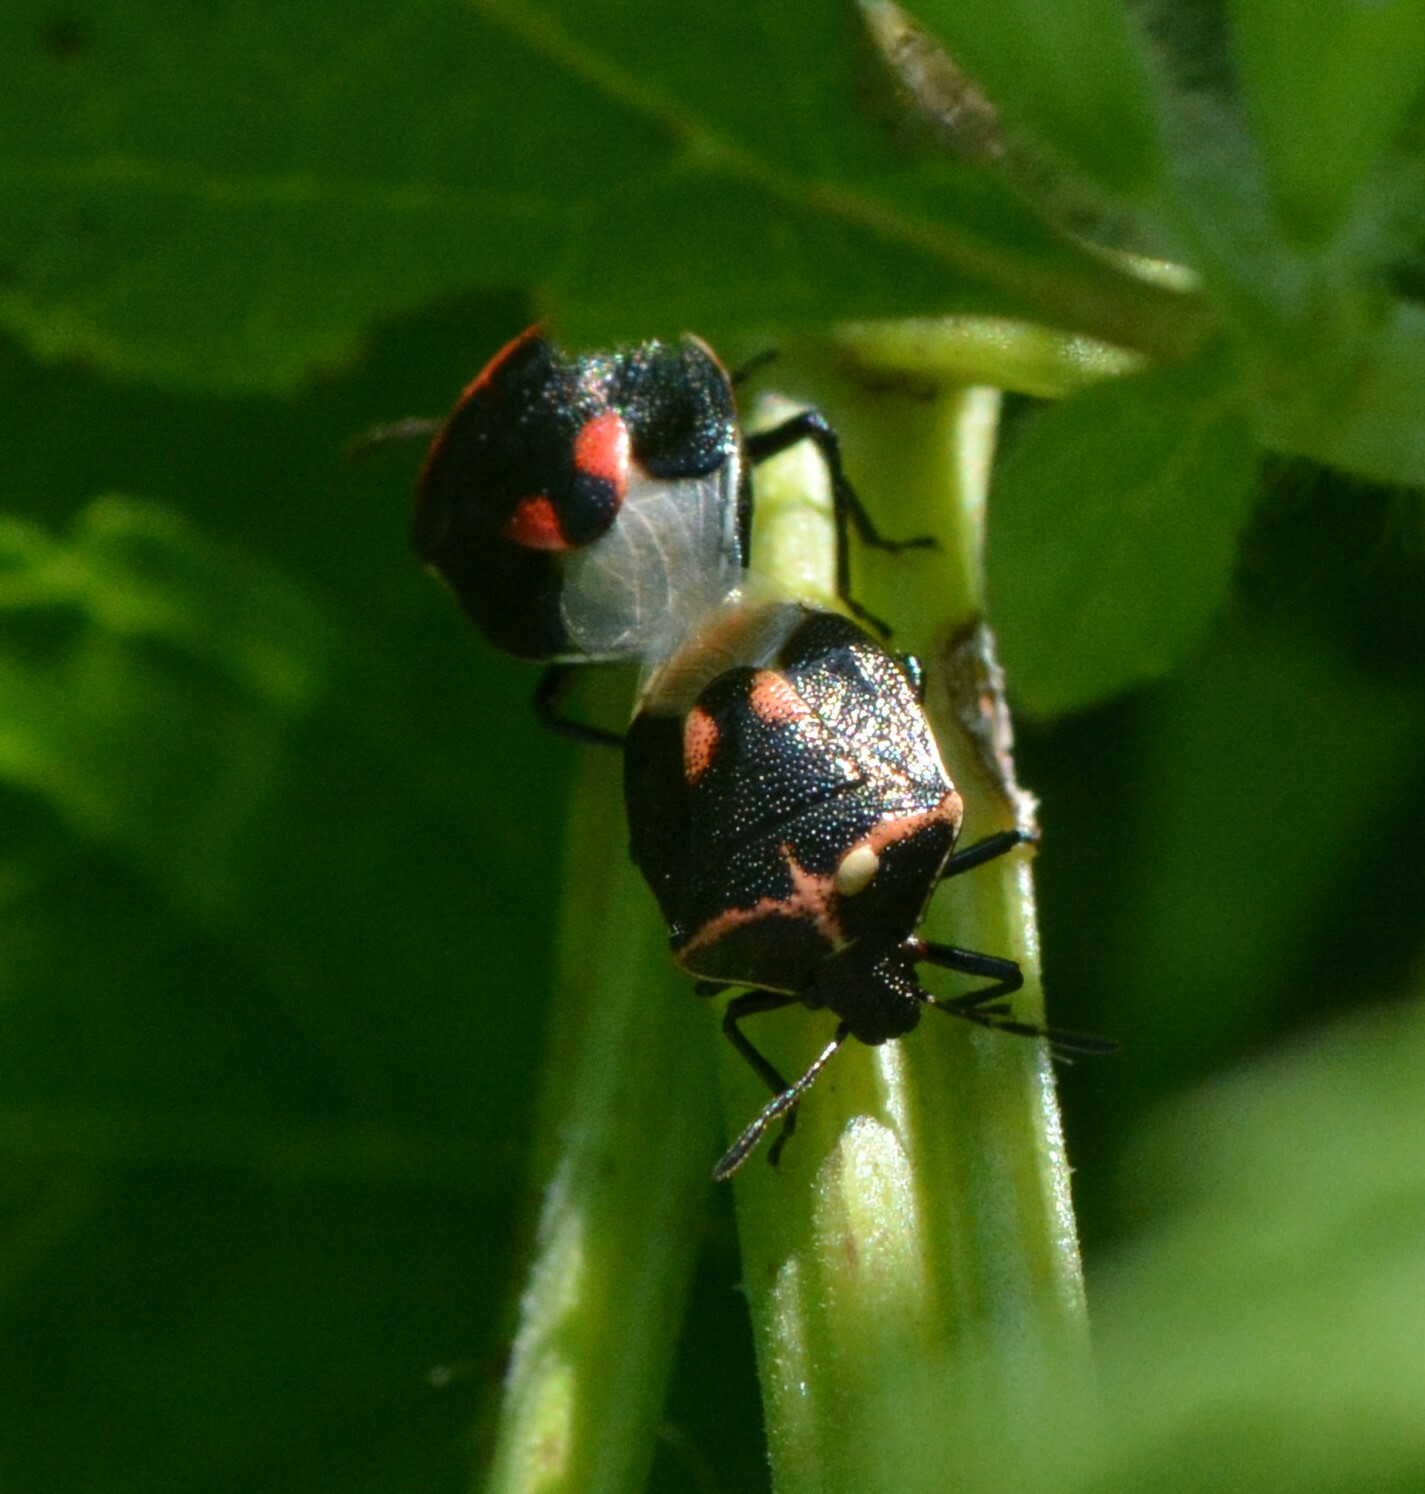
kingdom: Animalia
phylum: Arthropoda
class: Insecta
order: Hemiptera
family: Pentatomidae
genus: Cosmopepla
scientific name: Cosmopepla lintneriana
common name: Twice-stabbed stink bug
